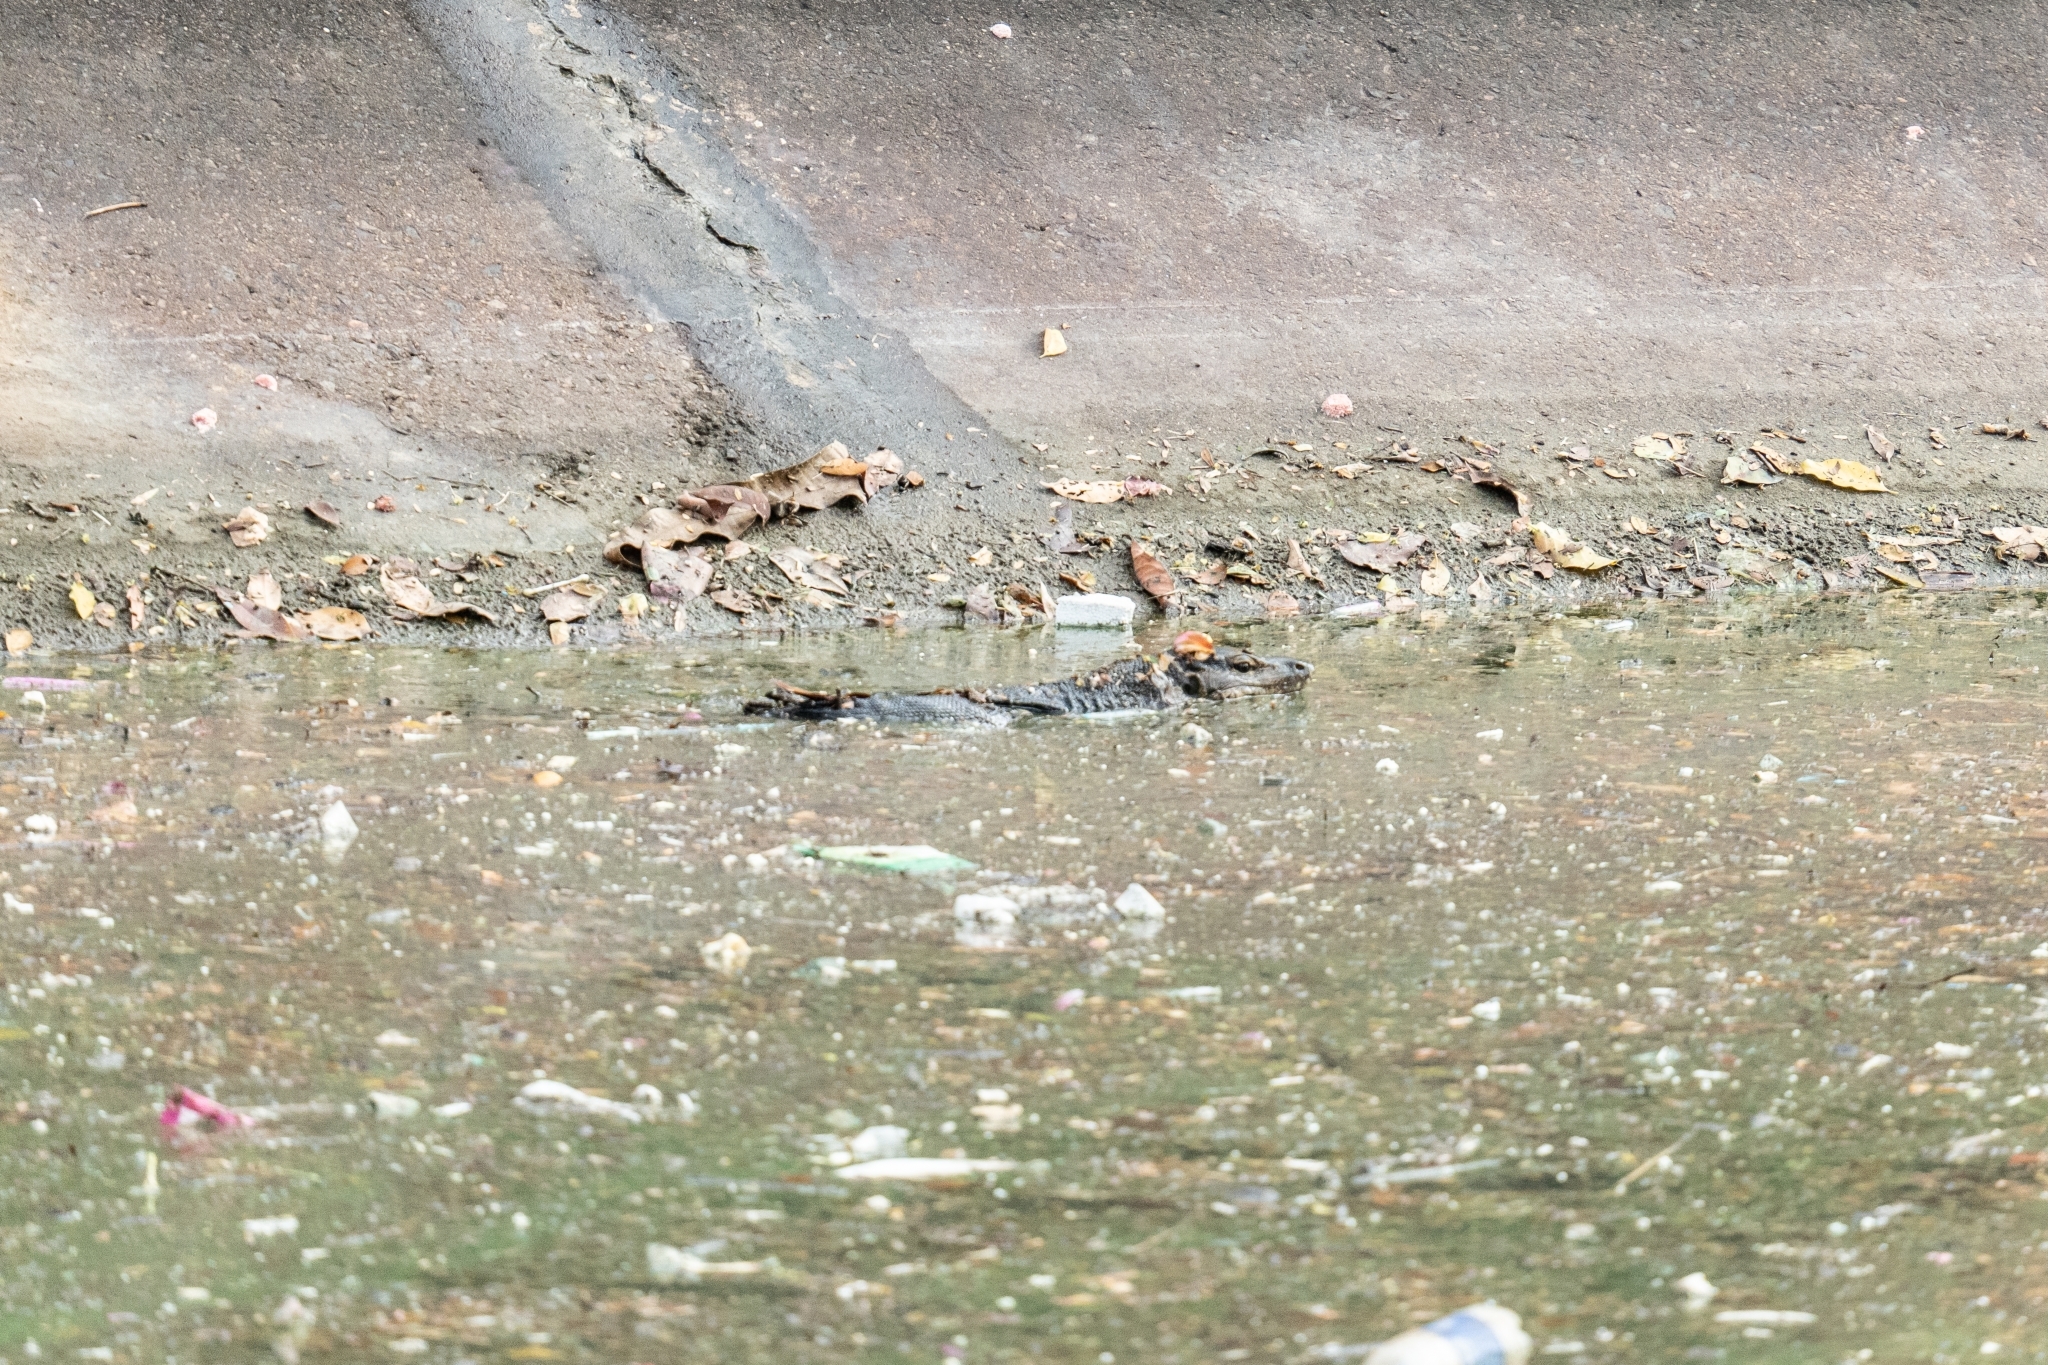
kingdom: Animalia
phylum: Chordata
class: Squamata
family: Varanidae
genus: Varanus
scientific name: Varanus salvator
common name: Common water monitor
